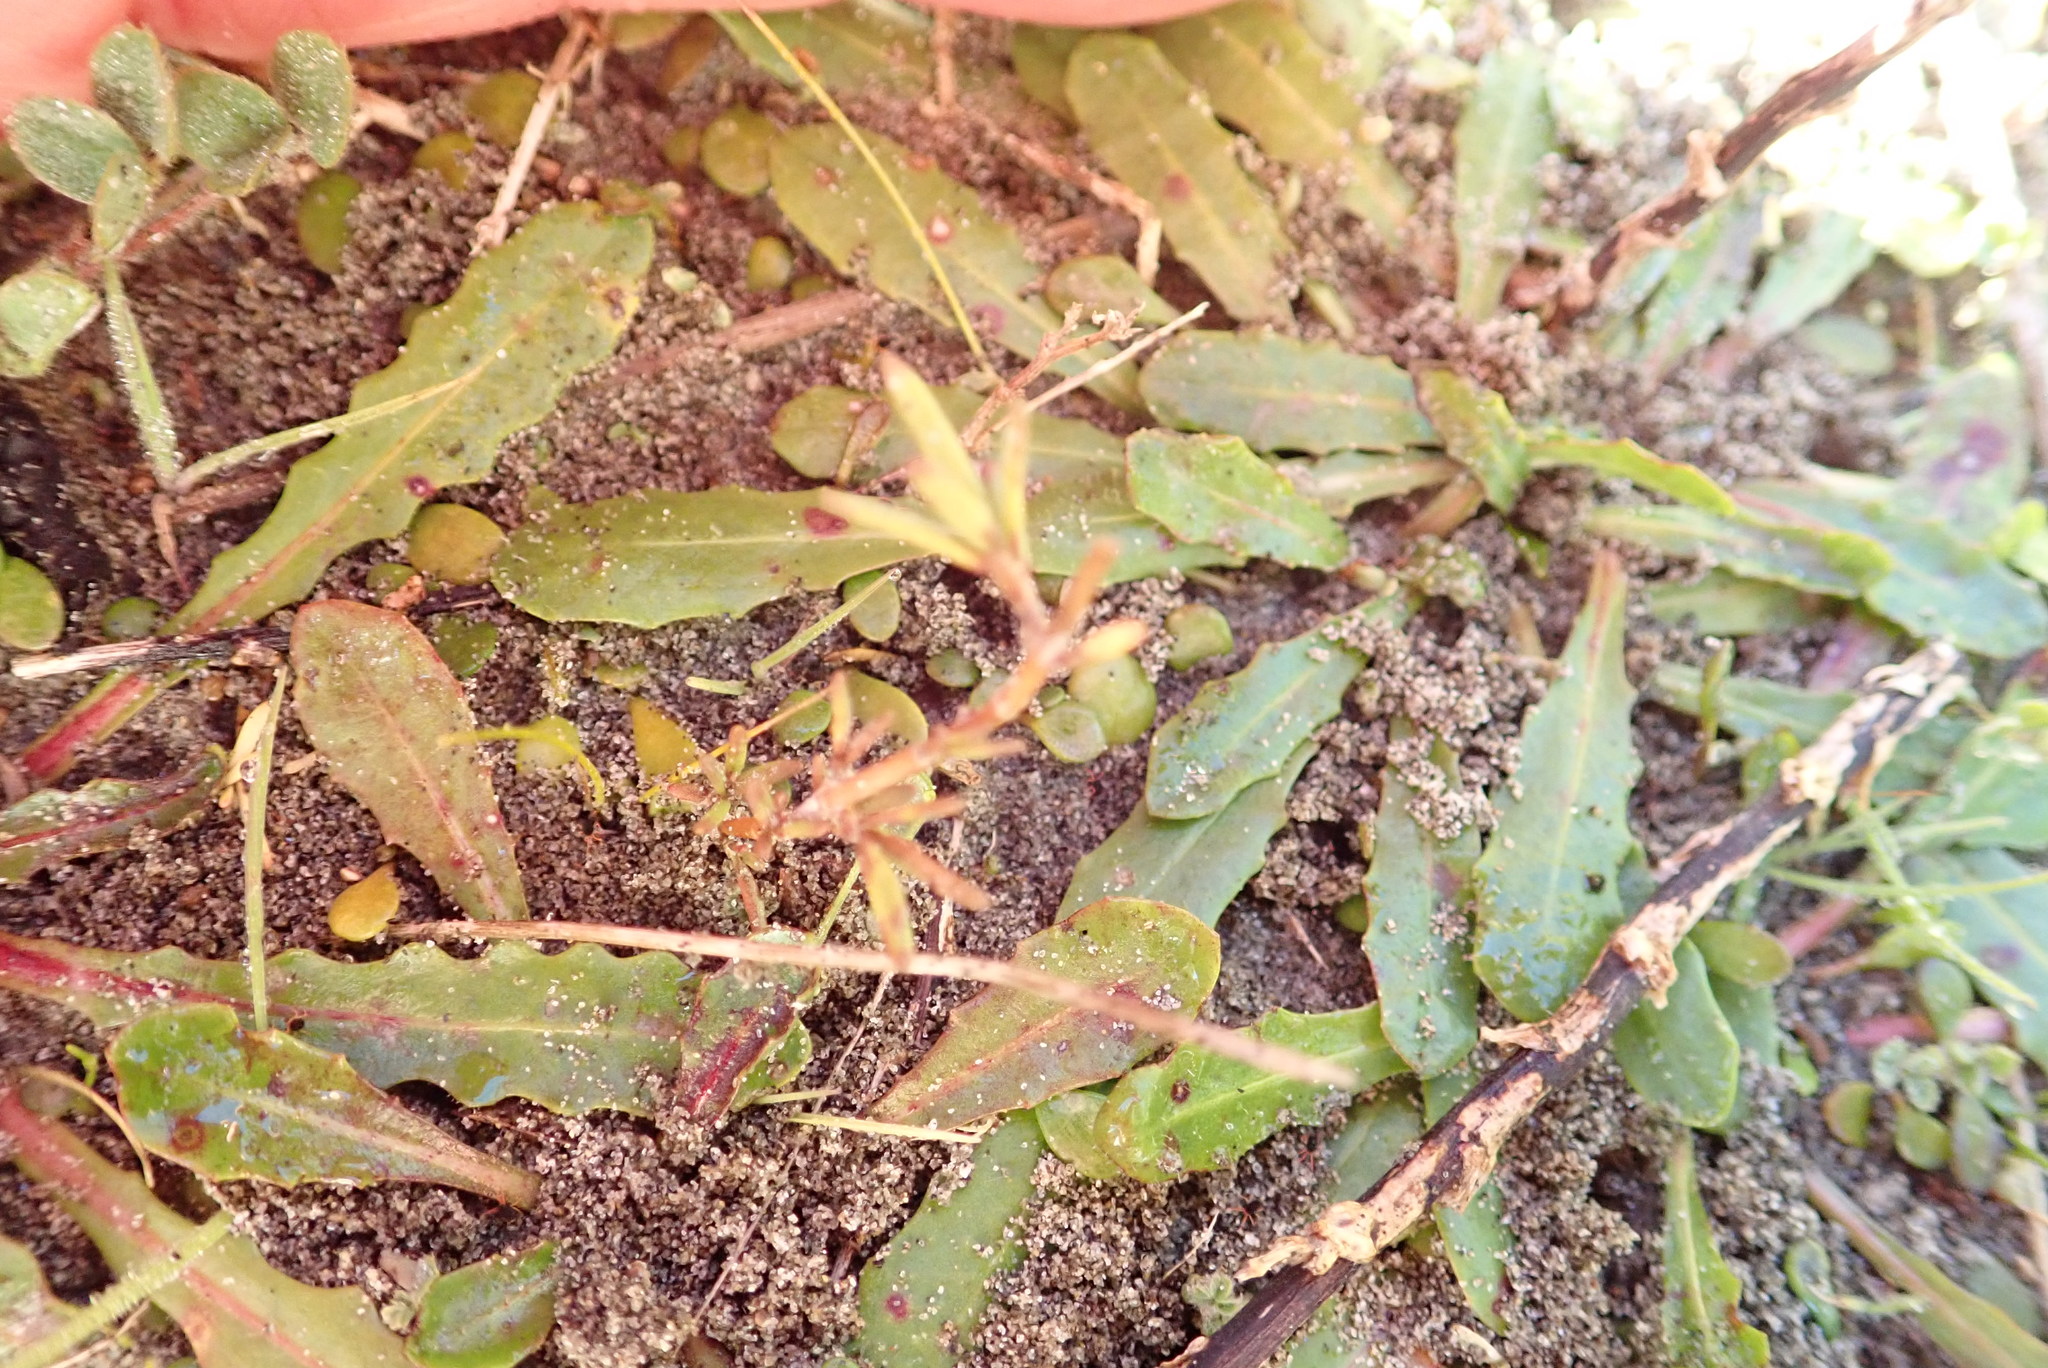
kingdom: Plantae
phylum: Tracheophyta
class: Magnoliopsida
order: Gentianales
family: Rubiaceae
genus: Coprosma
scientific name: Coprosma acerosa
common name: Sand coprosma
